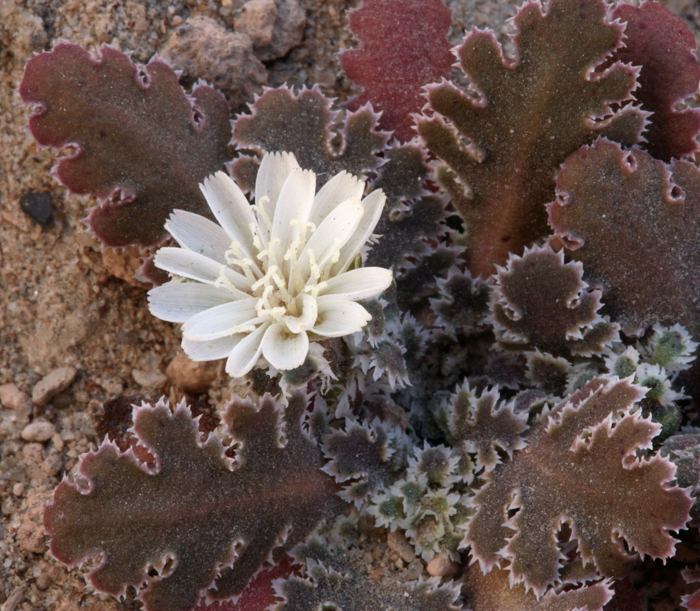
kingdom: Plantae
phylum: Tracheophyta
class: Magnoliopsida
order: Asterales
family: Asteraceae
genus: Glyptopleura
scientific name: Glyptopleura marginata
